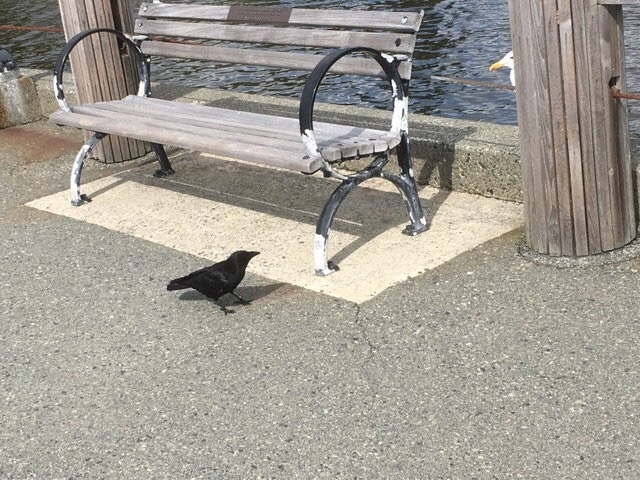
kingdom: Animalia
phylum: Chordata
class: Aves
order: Charadriiformes
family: Laridae
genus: Larus
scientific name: Larus glaucescens
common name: Glaucous-winged gull
